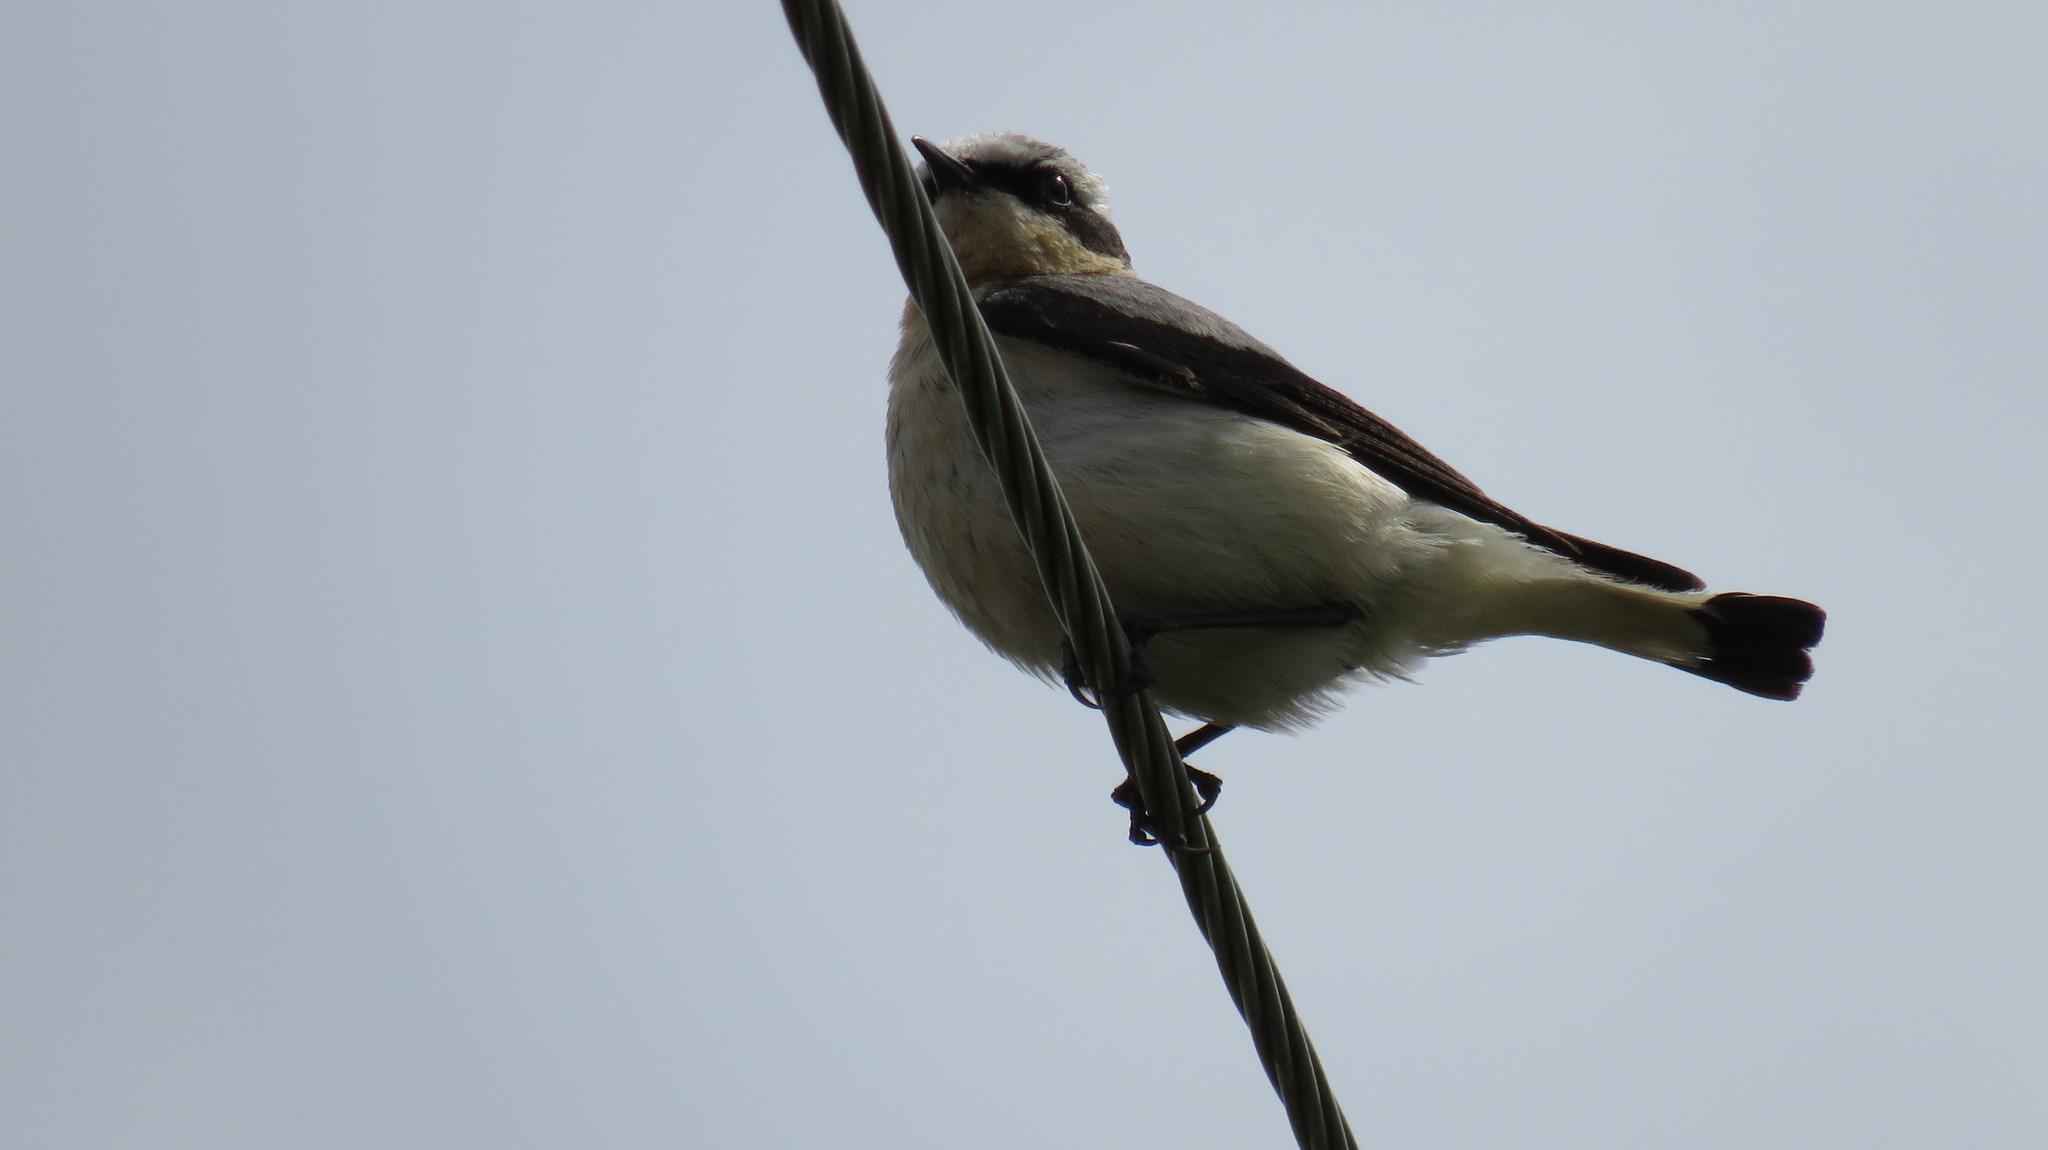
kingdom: Animalia
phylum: Chordata
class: Aves
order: Passeriformes
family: Muscicapidae
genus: Oenanthe
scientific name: Oenanthe oenanthe
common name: Northern wheatear
